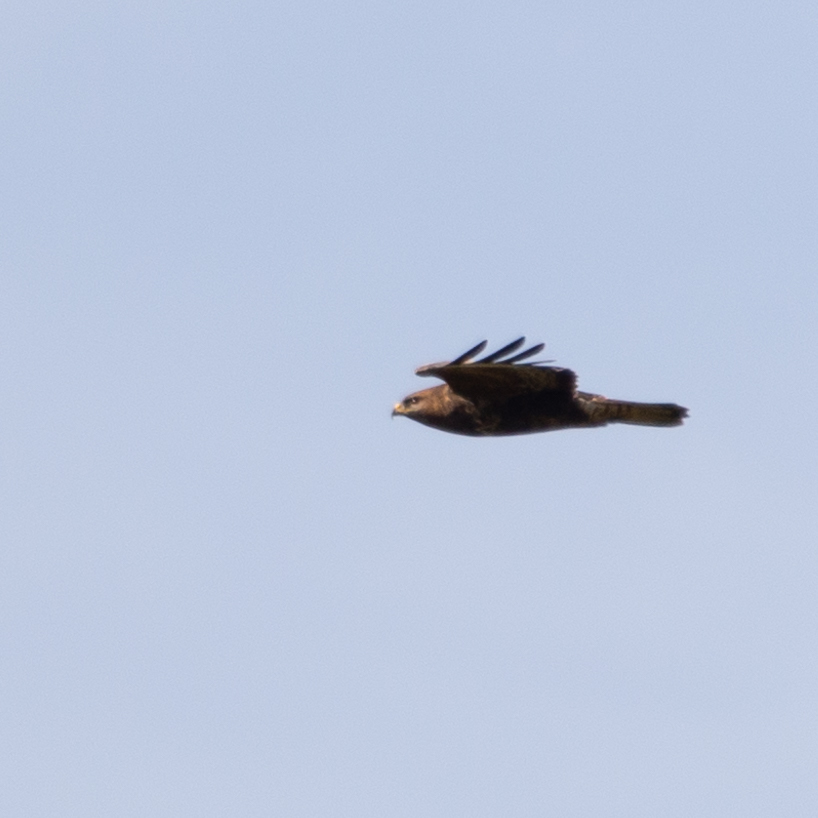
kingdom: Animalia
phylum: Chordata
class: Aves
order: Accipitriformes
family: Accipitridae
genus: Buteo
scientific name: Buteo buteo
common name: Common buzzard
